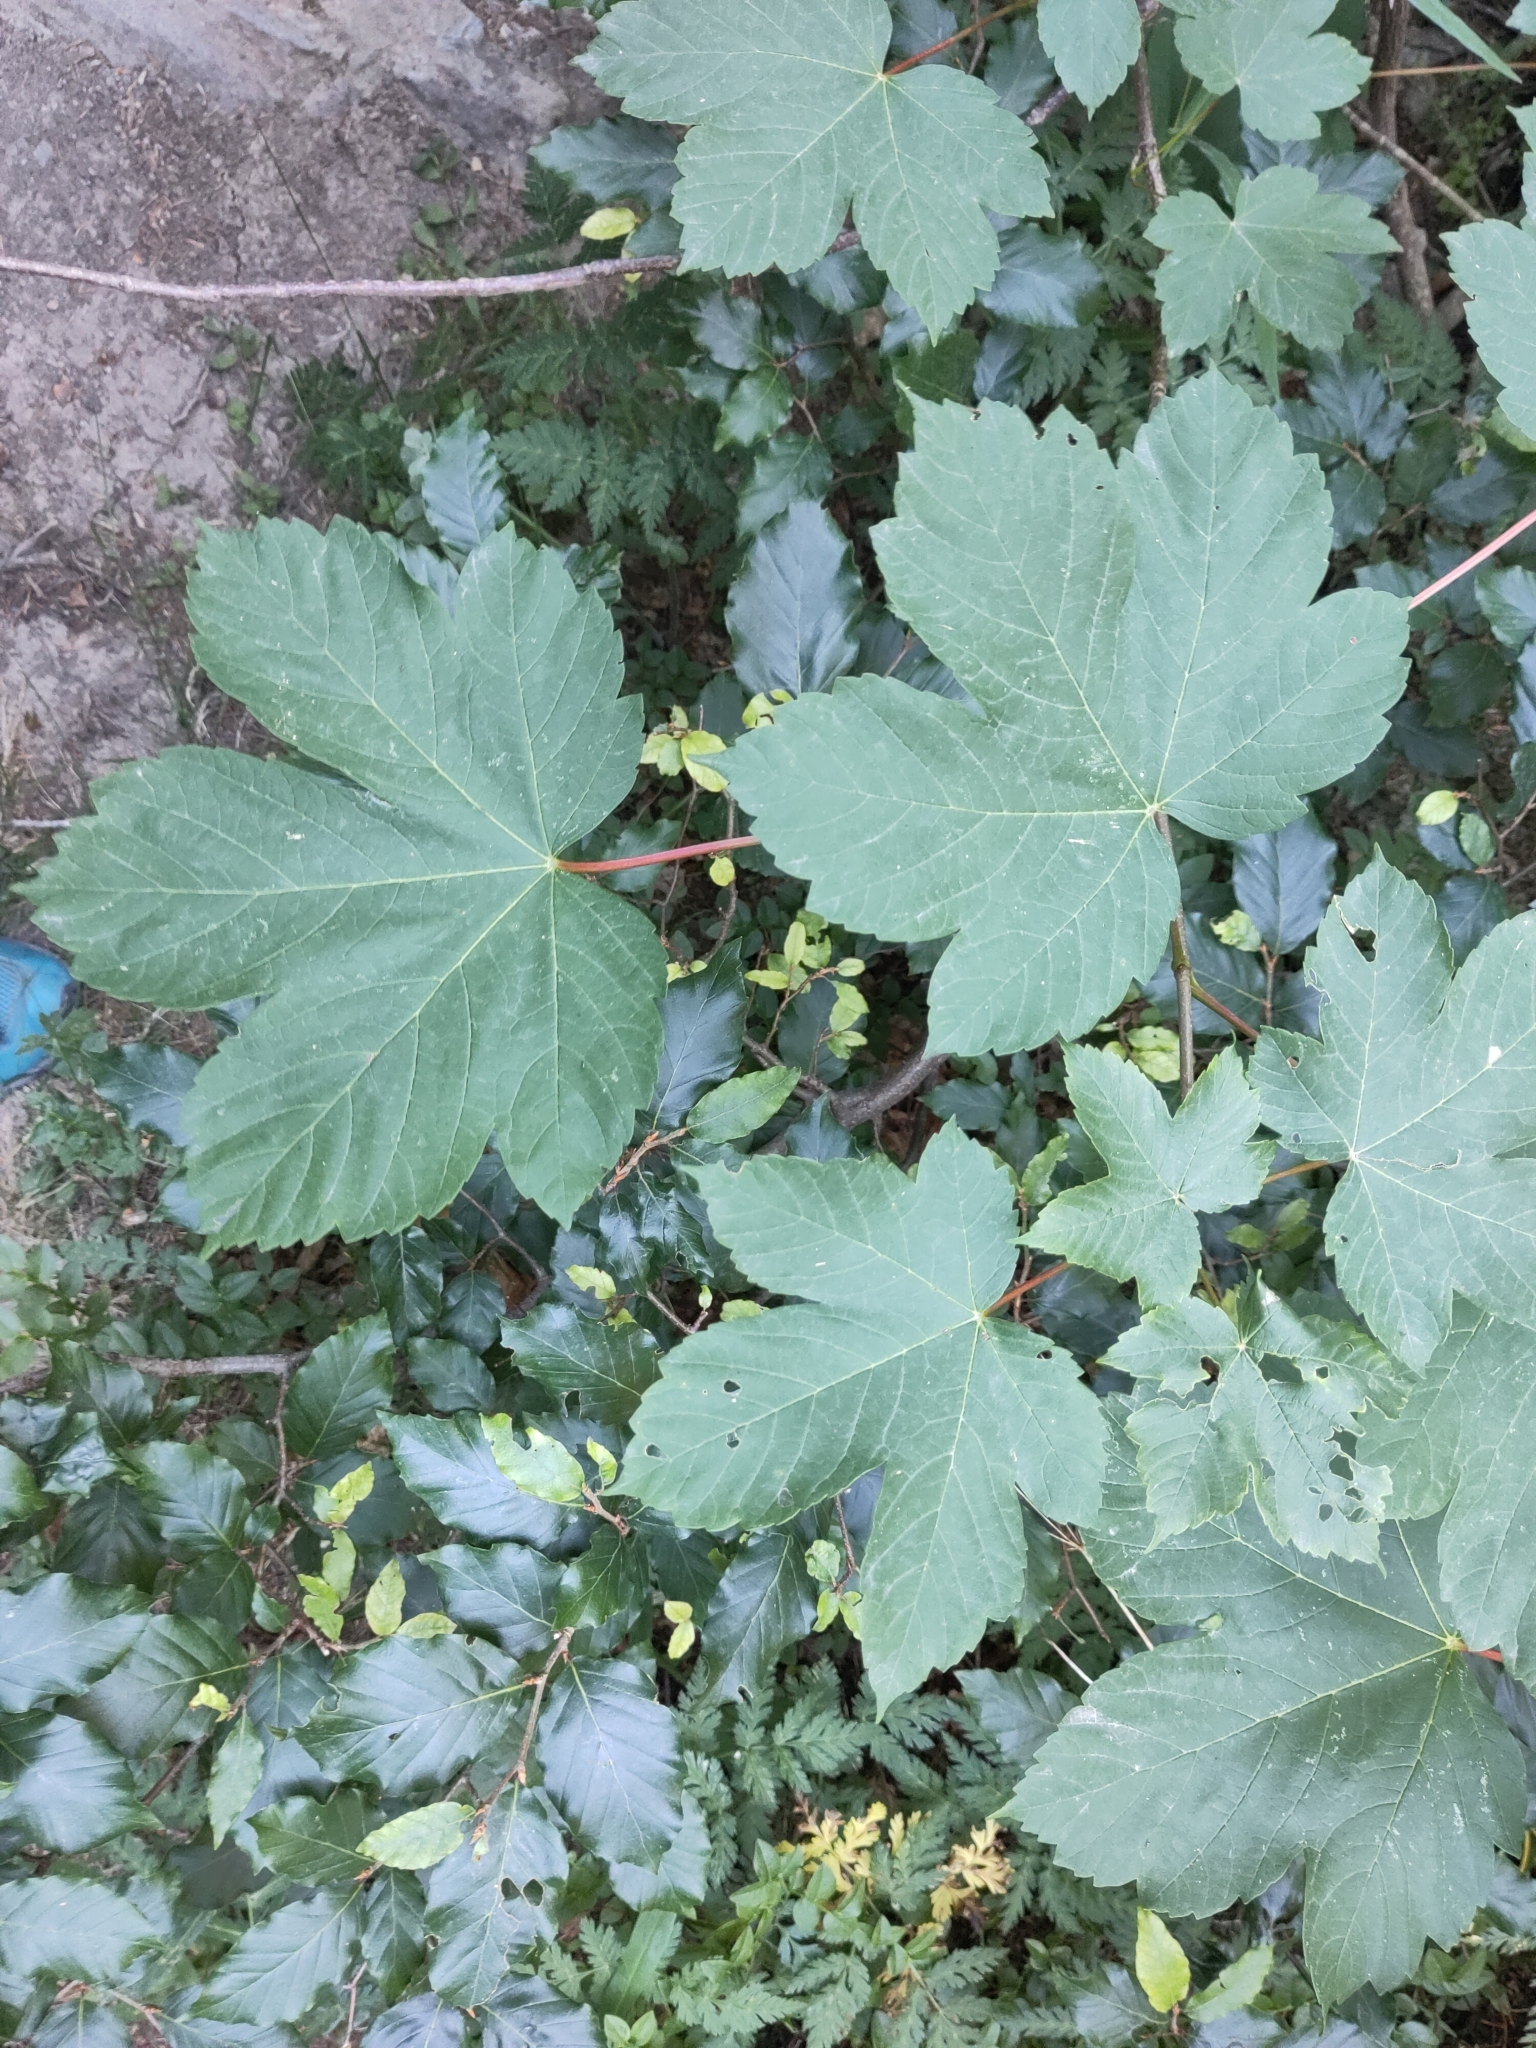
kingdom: Plantae
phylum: Tracheophyta
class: Magnoliopsida
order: Sapindales
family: Sapindaceae
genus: Acer
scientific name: Acer pseudoplatanus
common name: Sycamore
